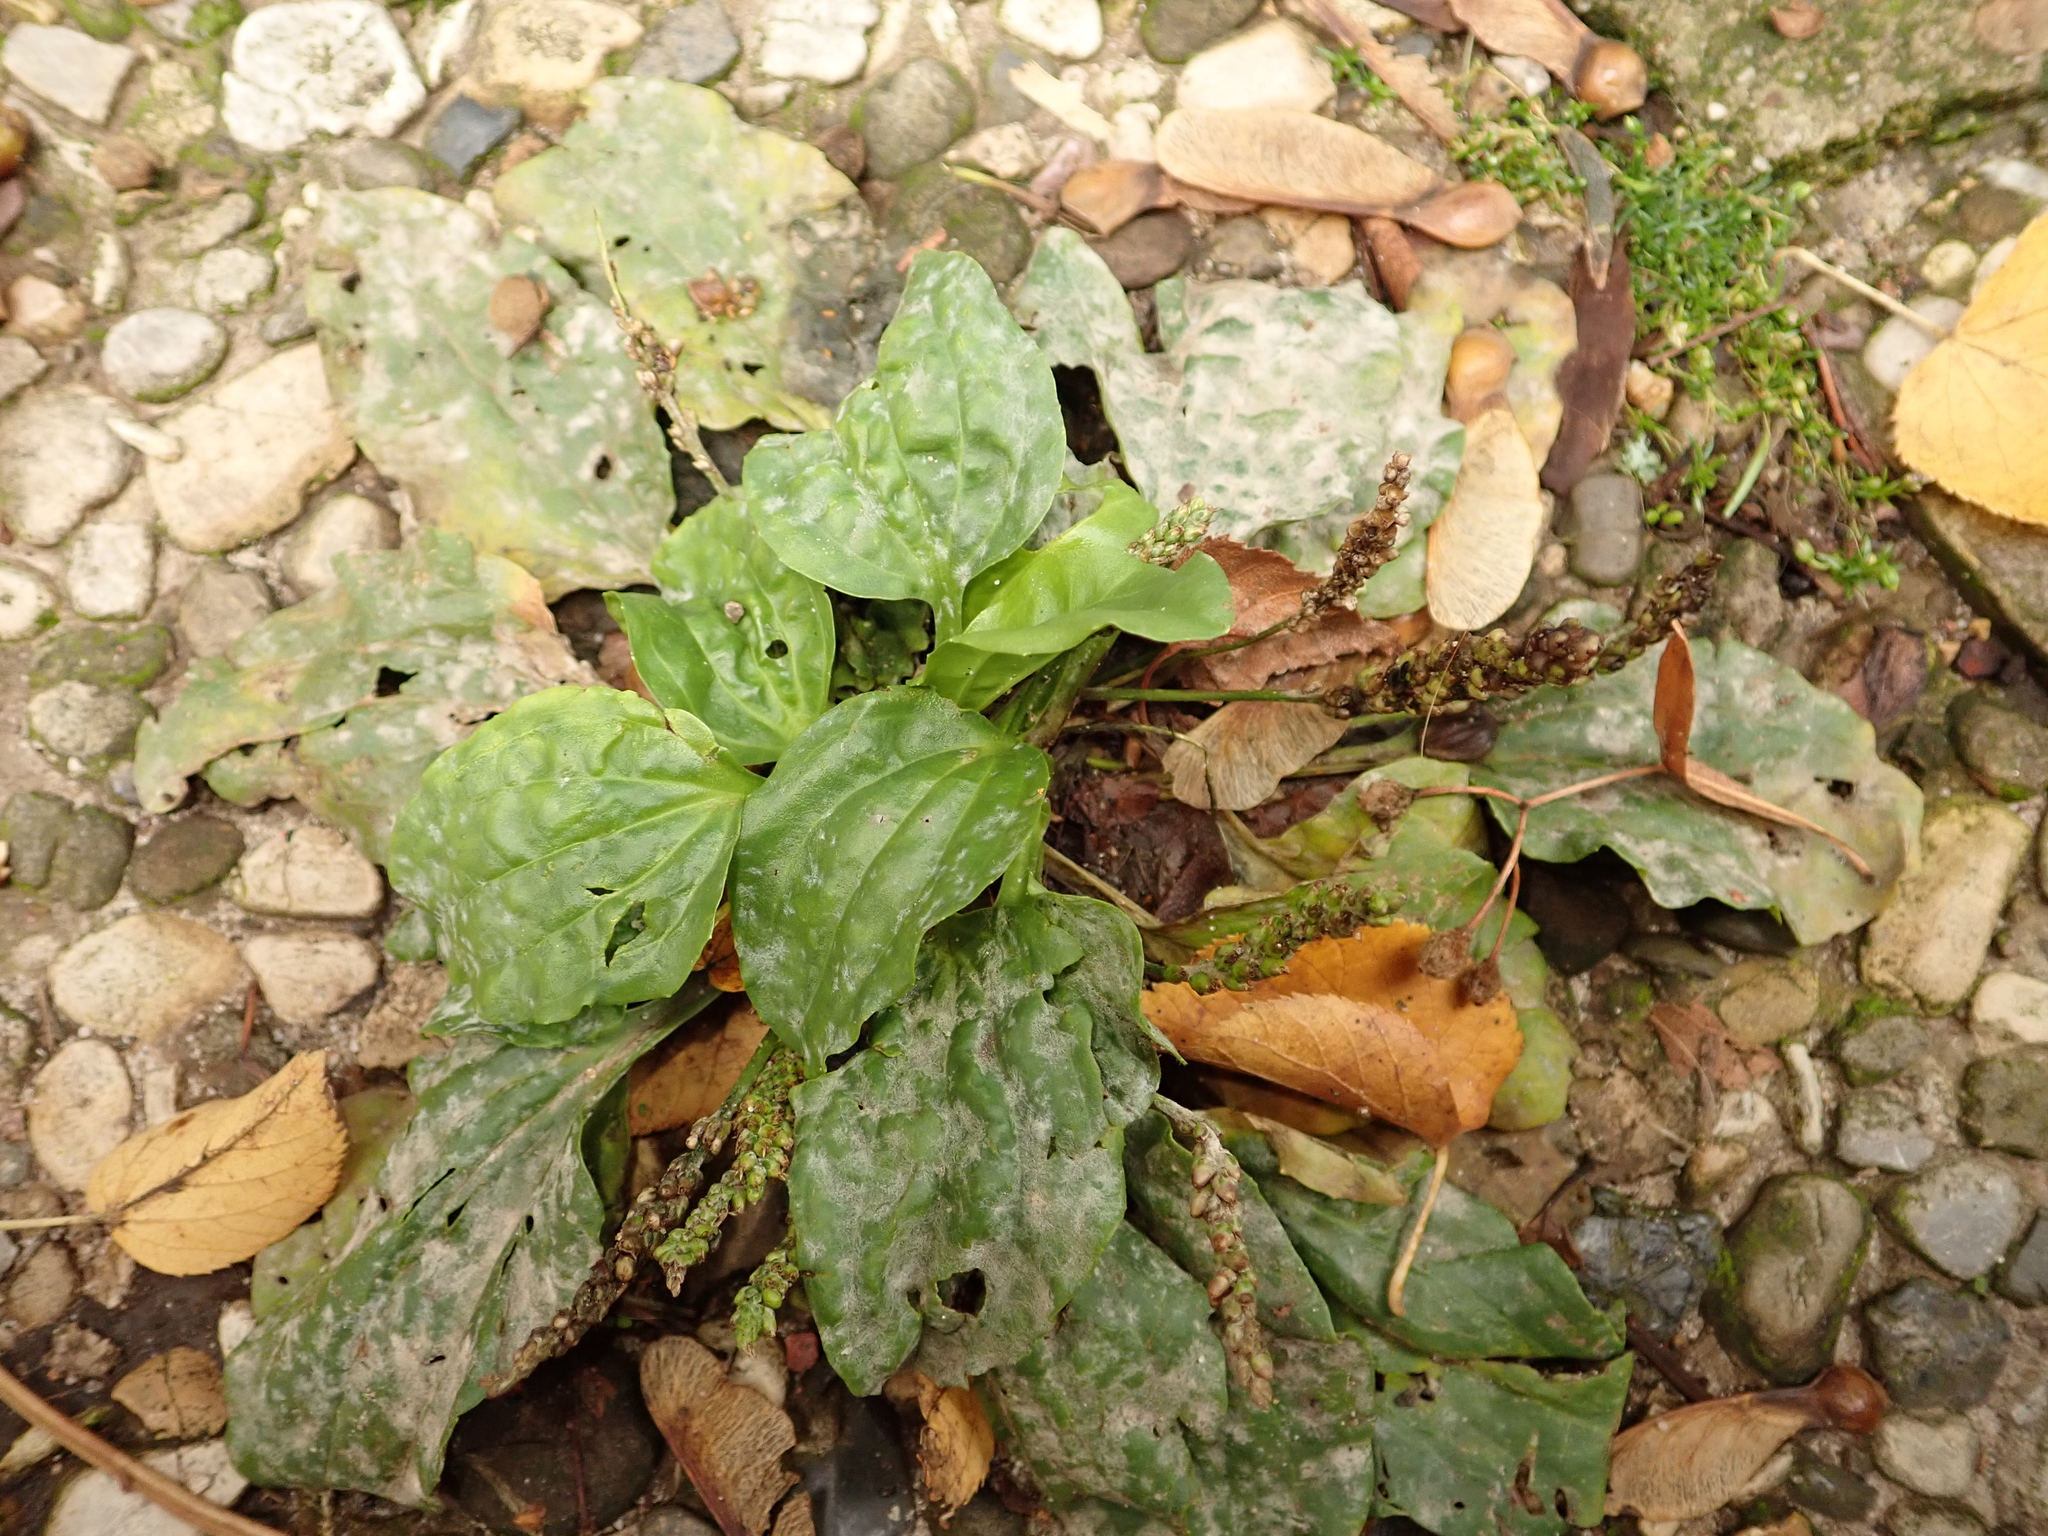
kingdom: Plantae
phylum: Tracheophyta
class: Magnoliopsida
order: Lamiales
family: Plantaginaceae
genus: Plantago
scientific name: Plantago major
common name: Common plantain
